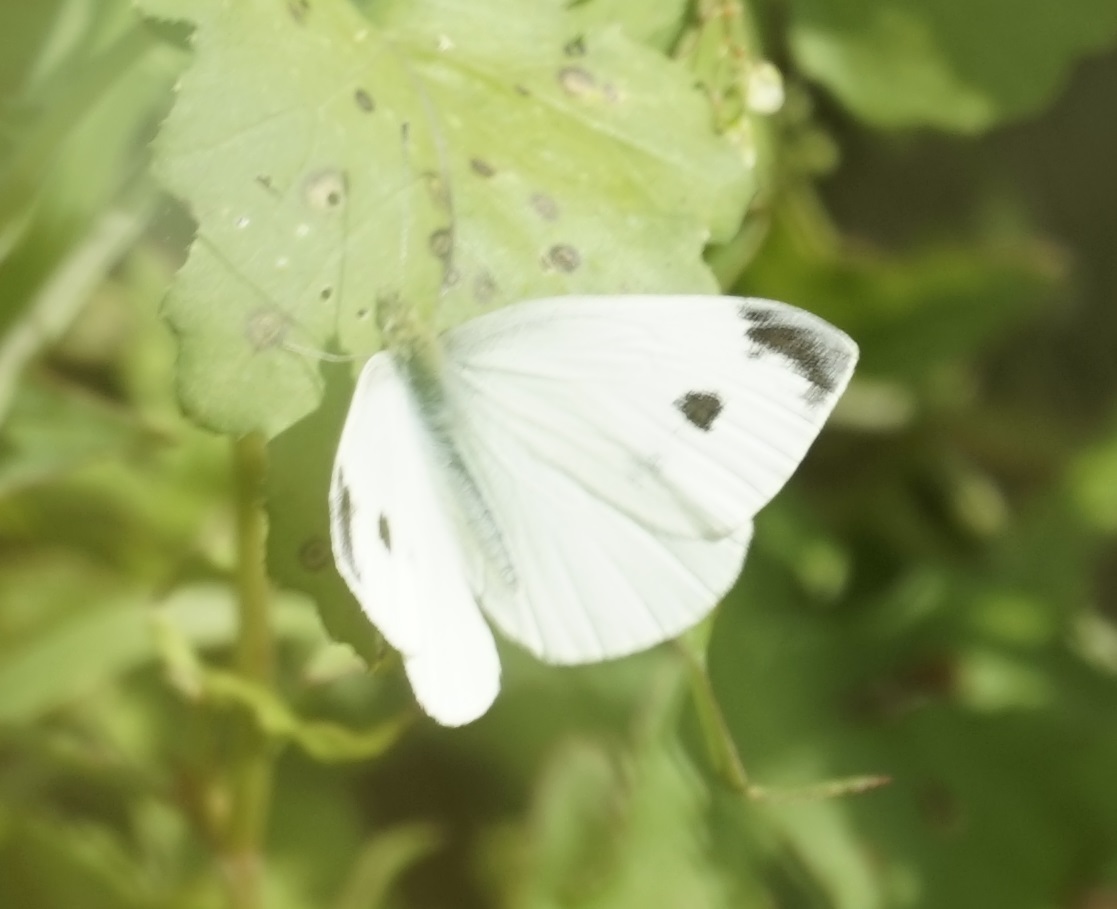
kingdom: Animalia
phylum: Arthropoda
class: Insecta
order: Lepidoptera
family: Pieridae
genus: Pieris
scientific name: Pieris rapae
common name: Small white
